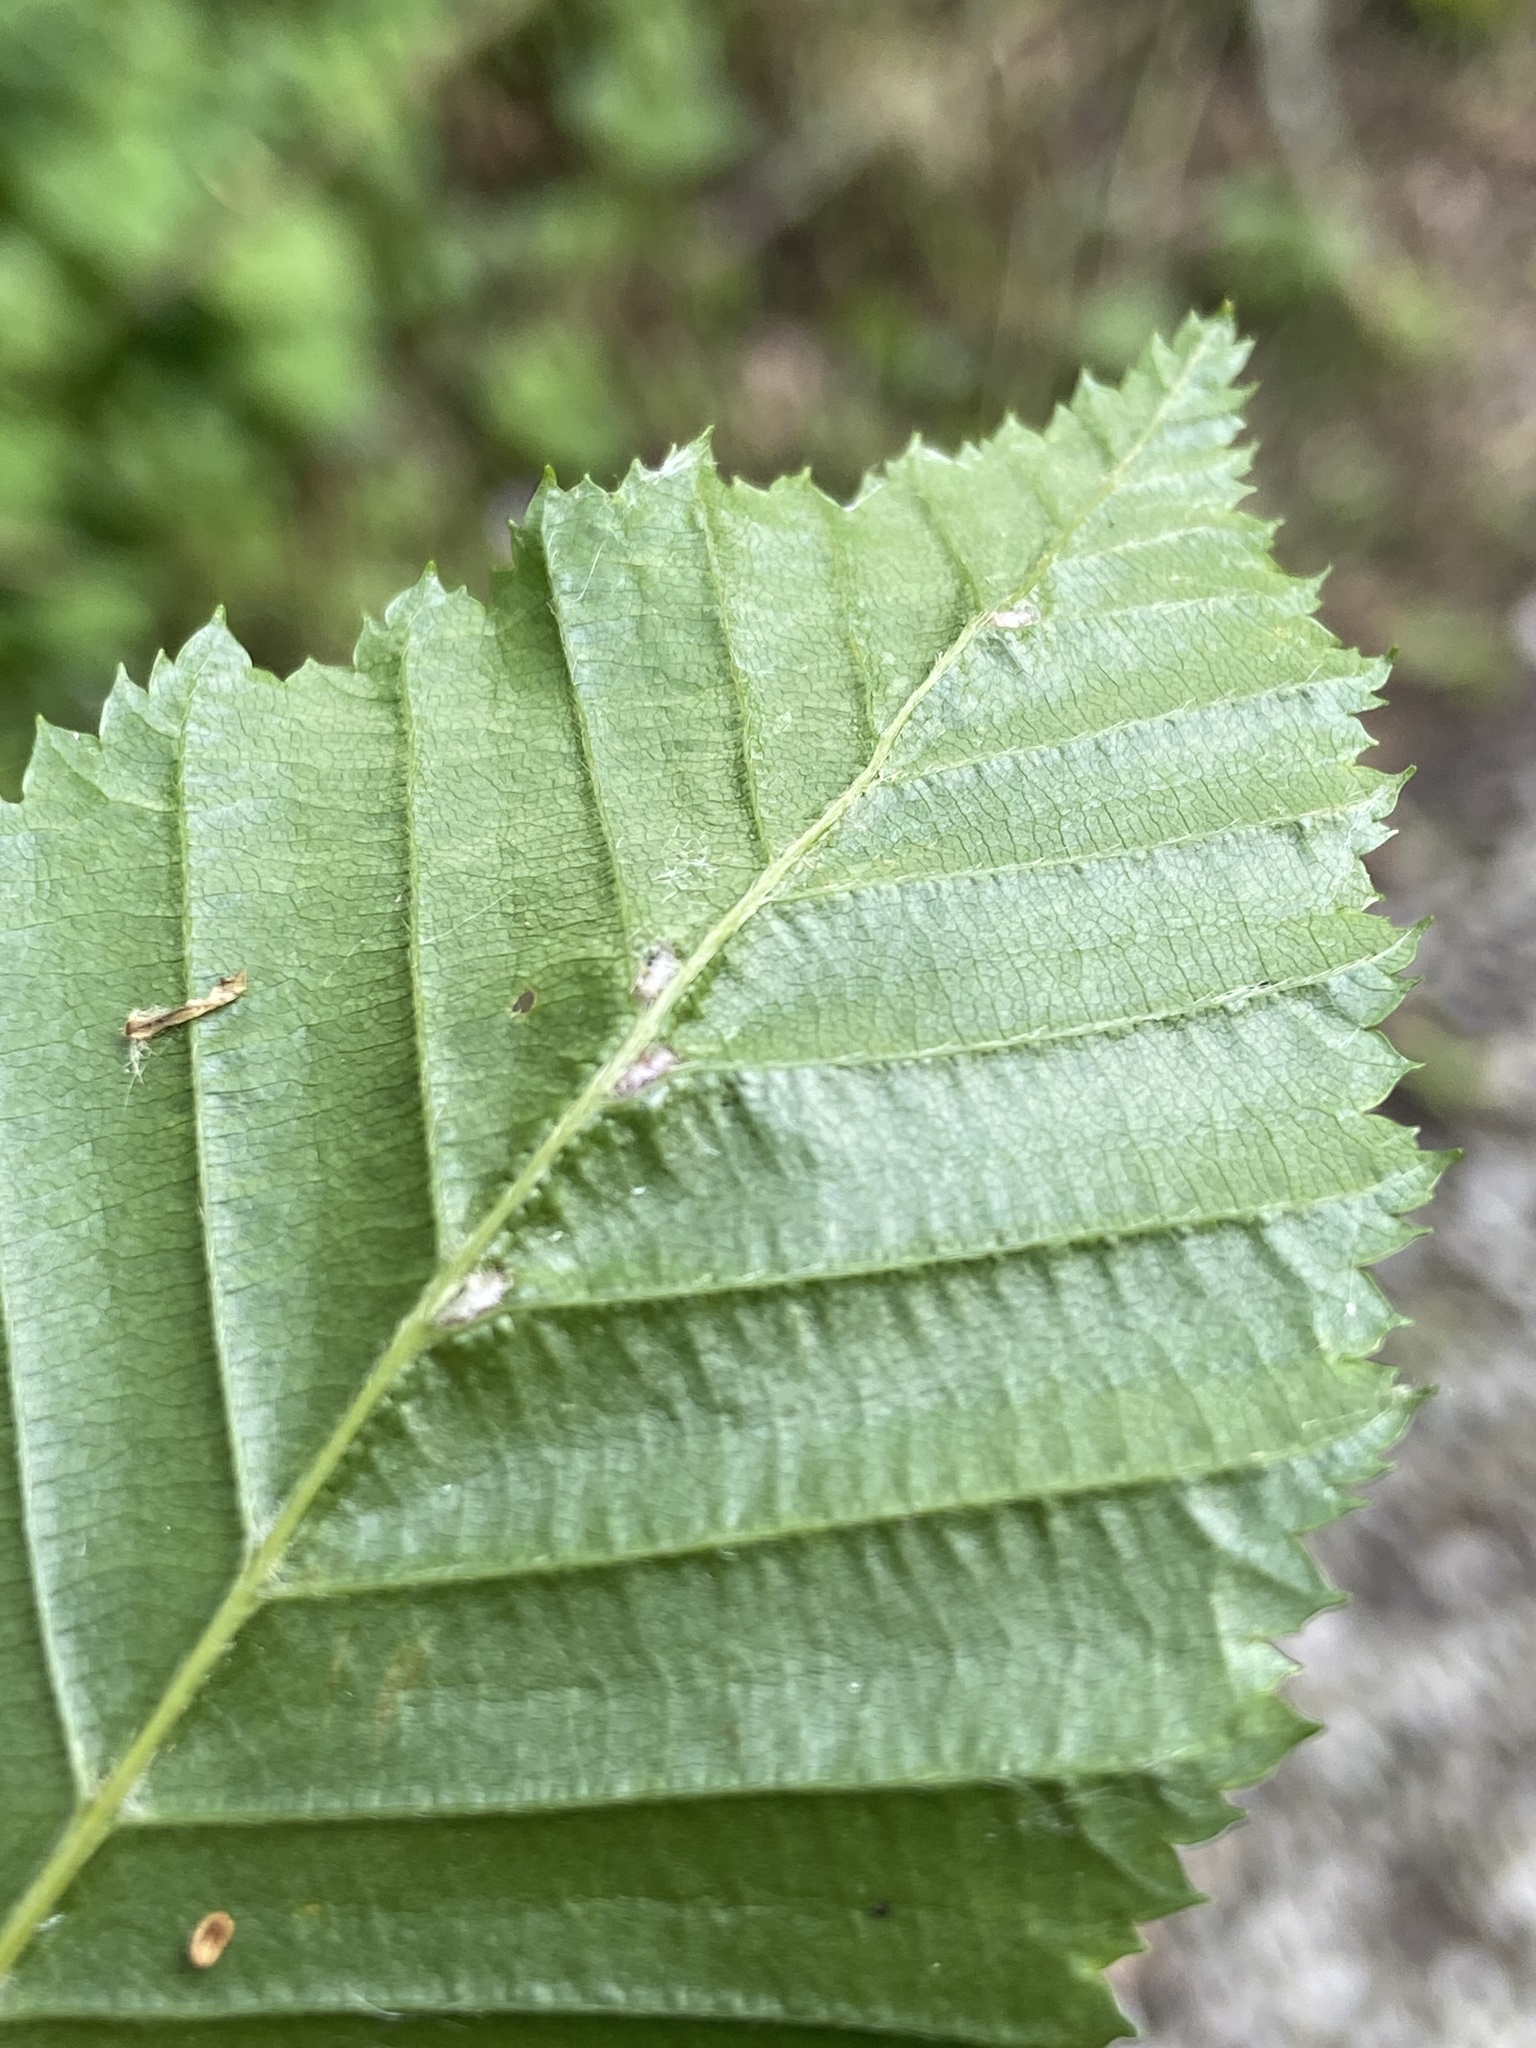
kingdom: Animalia
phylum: Arthropoda
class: Arachnida
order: Trombidiformes
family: Eriophyidae
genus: Aceria
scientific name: Aceria tenellus
